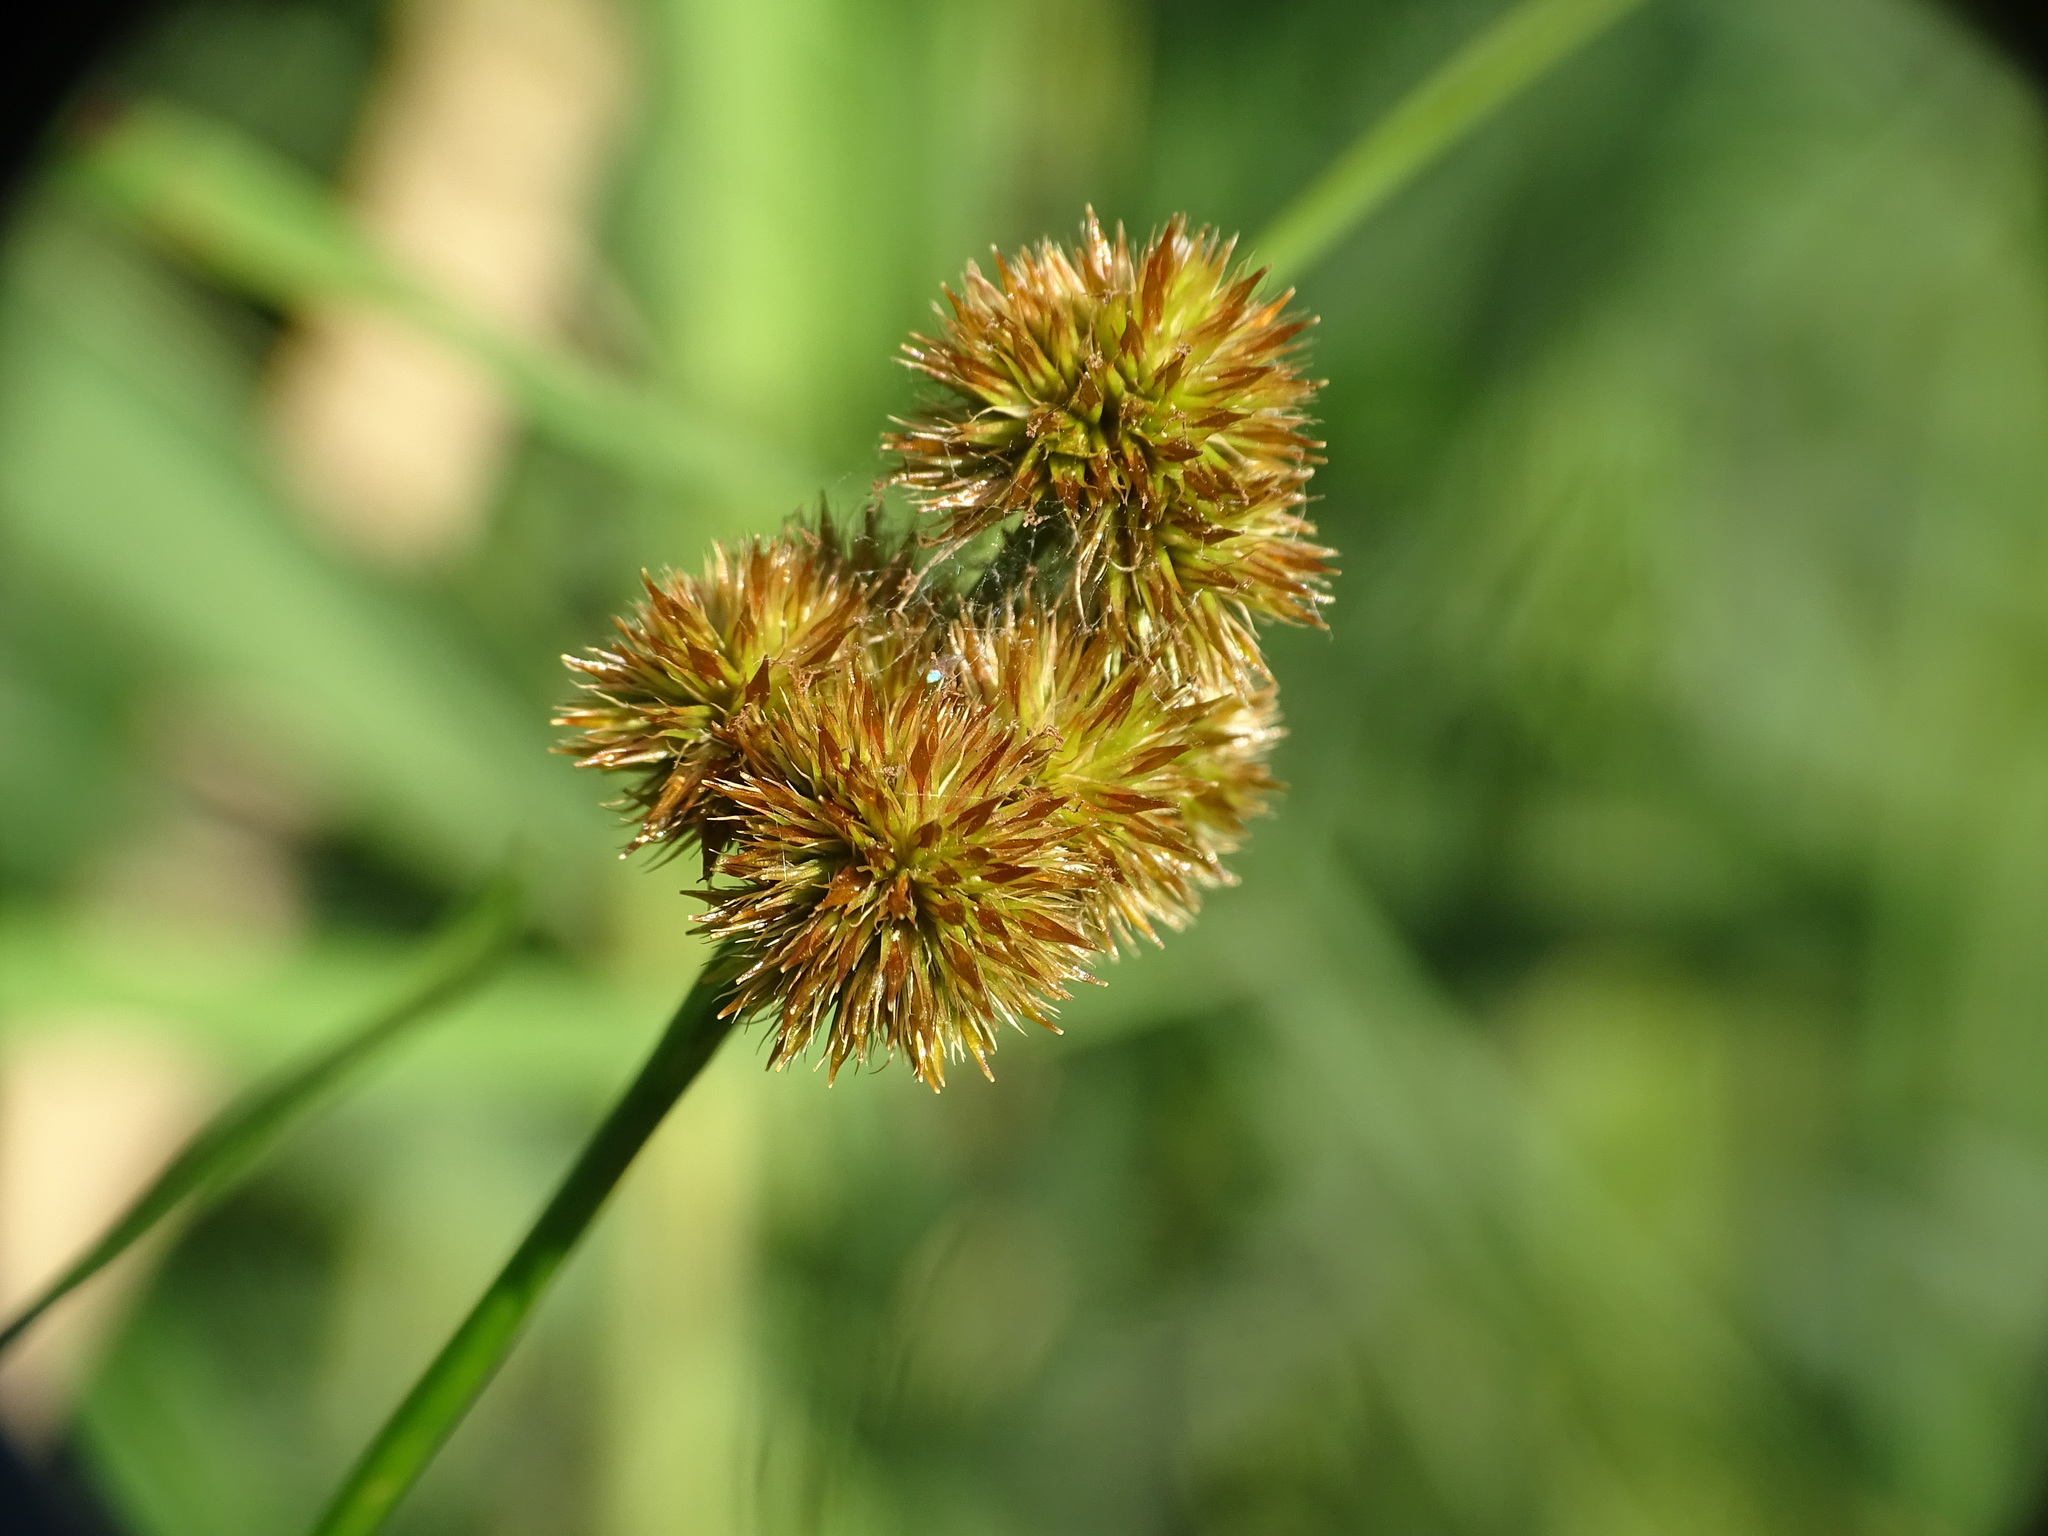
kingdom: Plantae
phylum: Tracheophyta
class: Liliopsida
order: Poales
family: Juncaceae
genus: Juncus
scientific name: Juncus torreyi
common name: Torrey's rush
